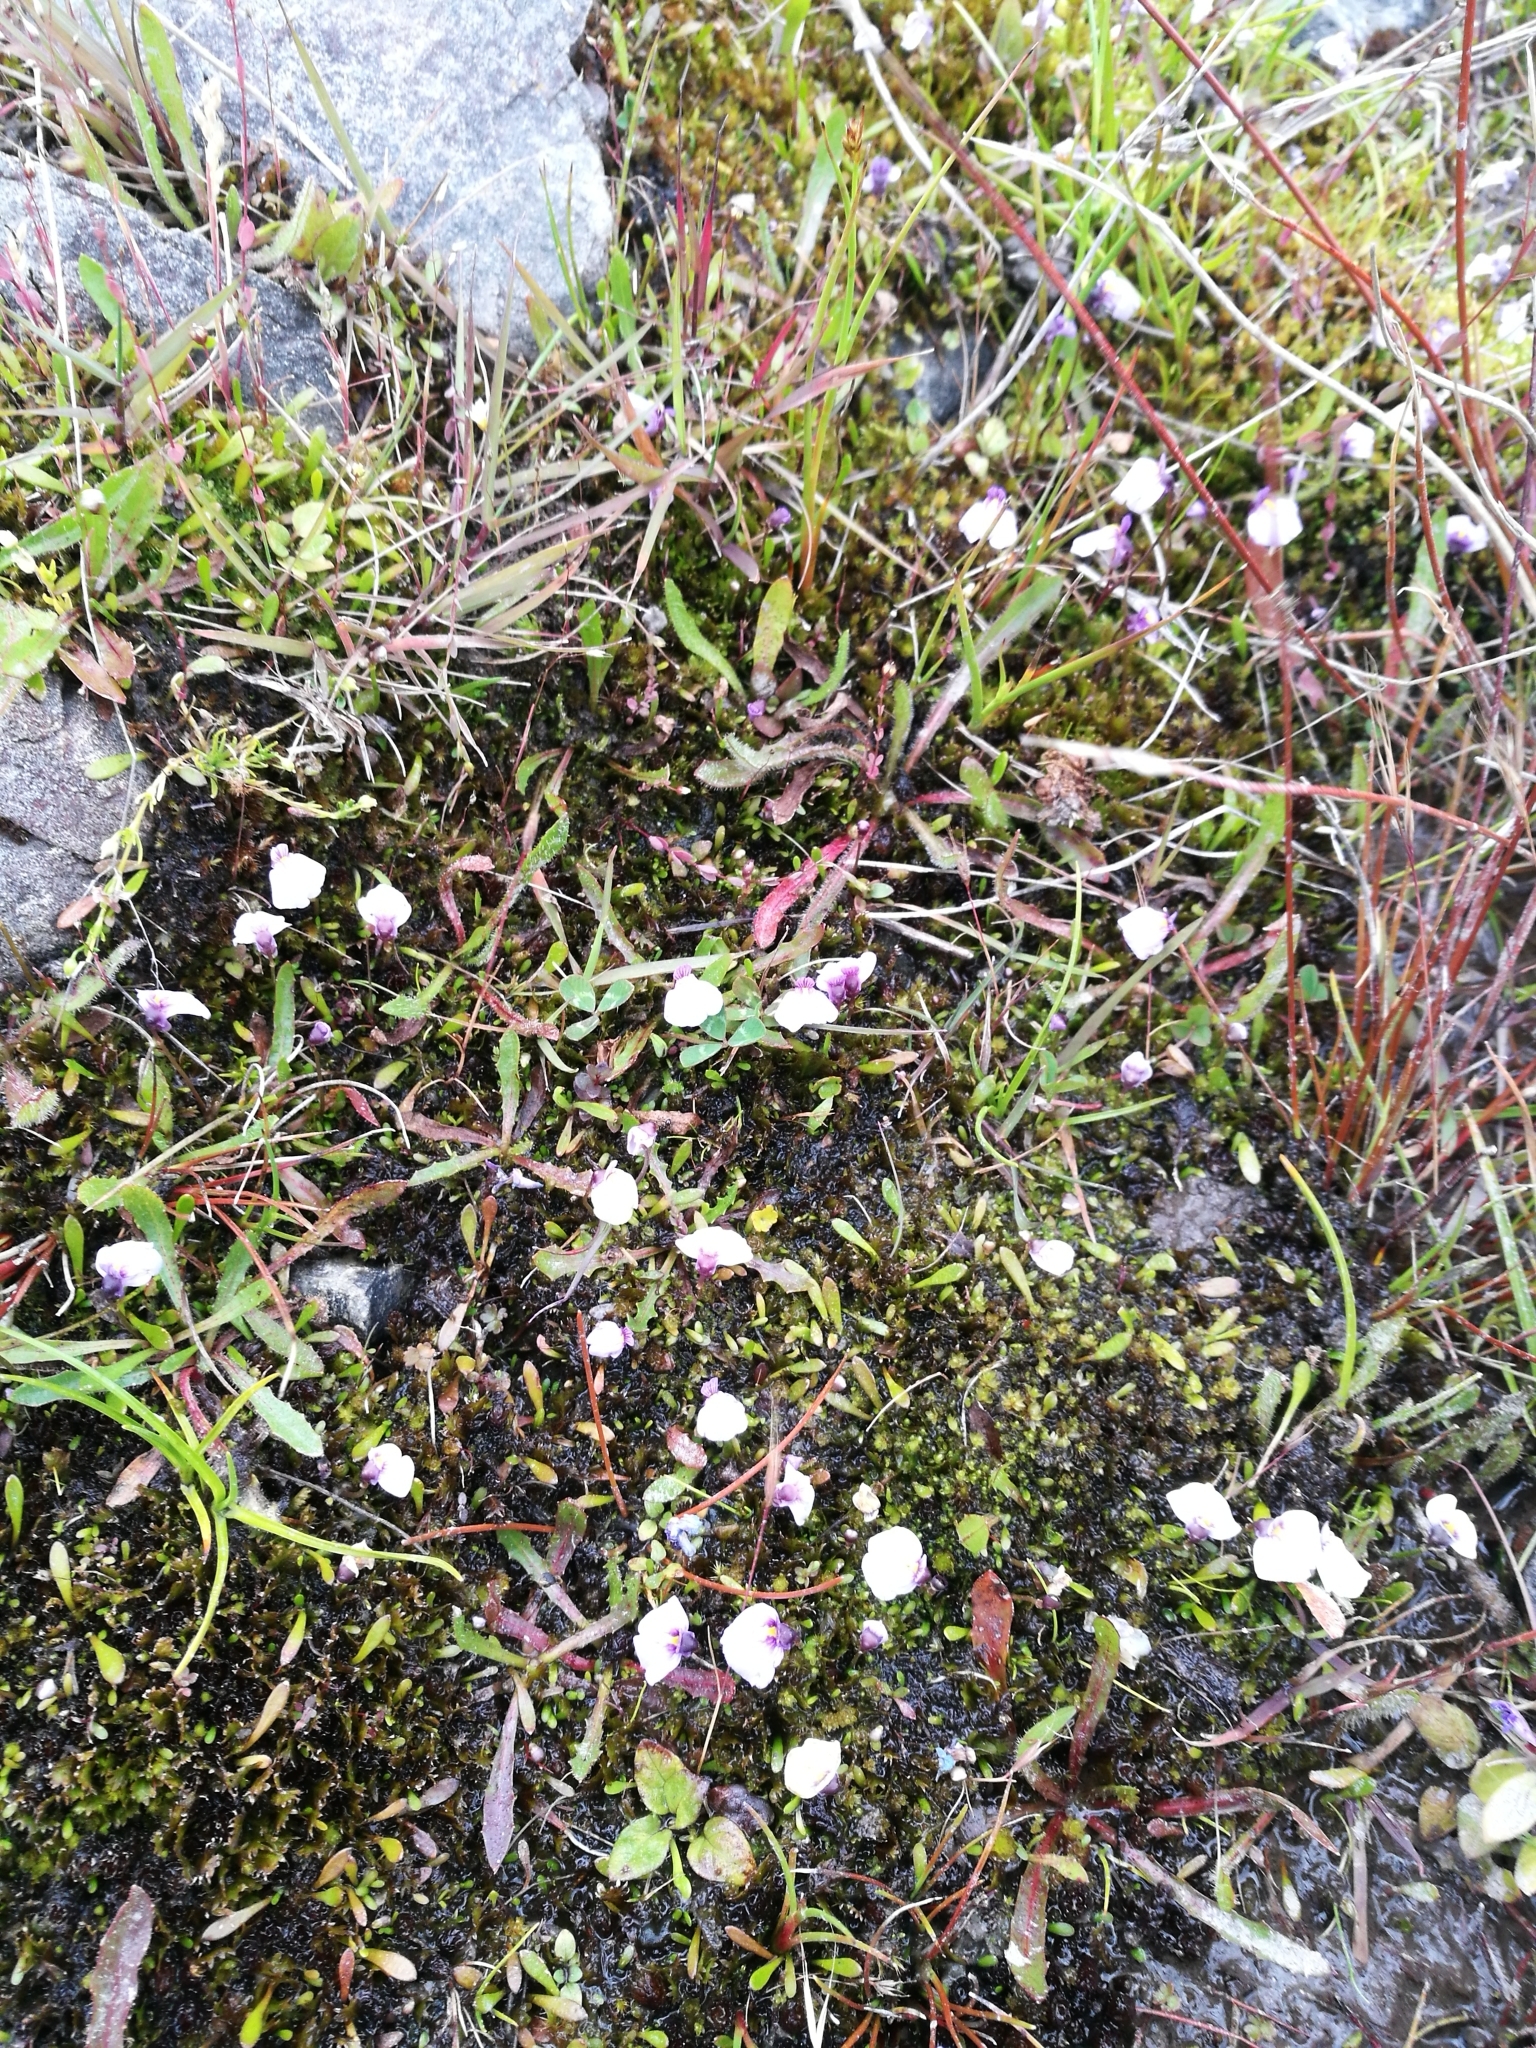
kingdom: Plantae
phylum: Tracheophyta
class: Magnoliopsida
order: Lamiales
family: Lentibulariaceae
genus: Utricularia
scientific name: Utricularia dichotoma
